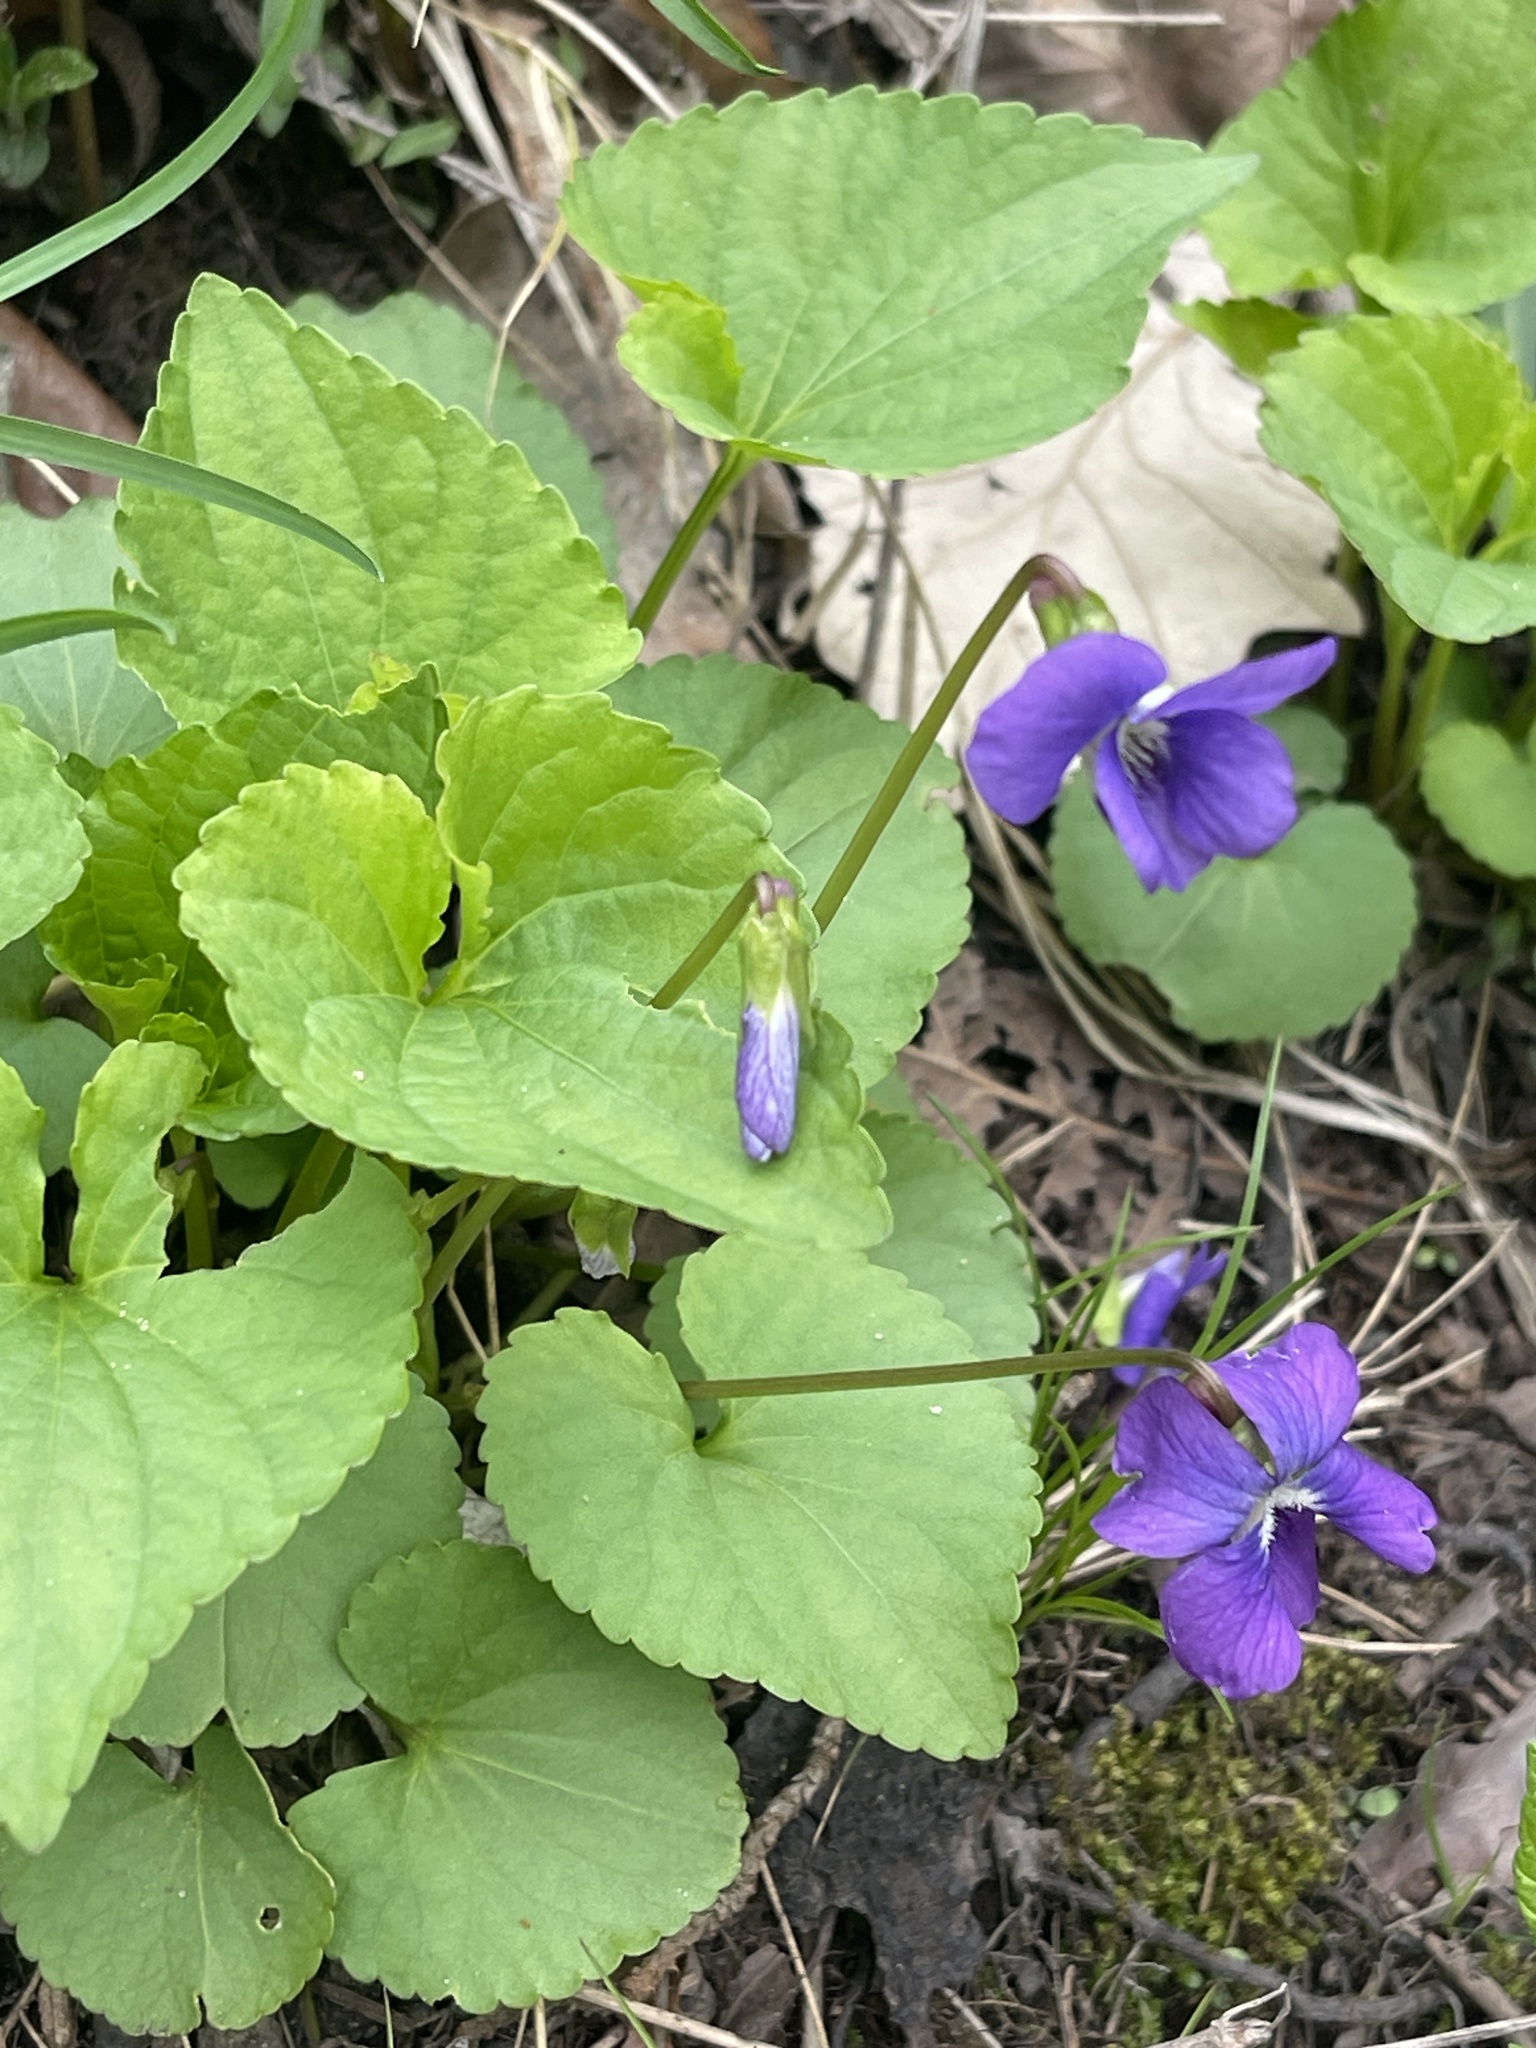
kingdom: Plantae
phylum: Tracheophyta
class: Magnoliopsida
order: Malpighiales
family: Violaceae
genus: Viola
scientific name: Viola sororia
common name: Dooryard violet
